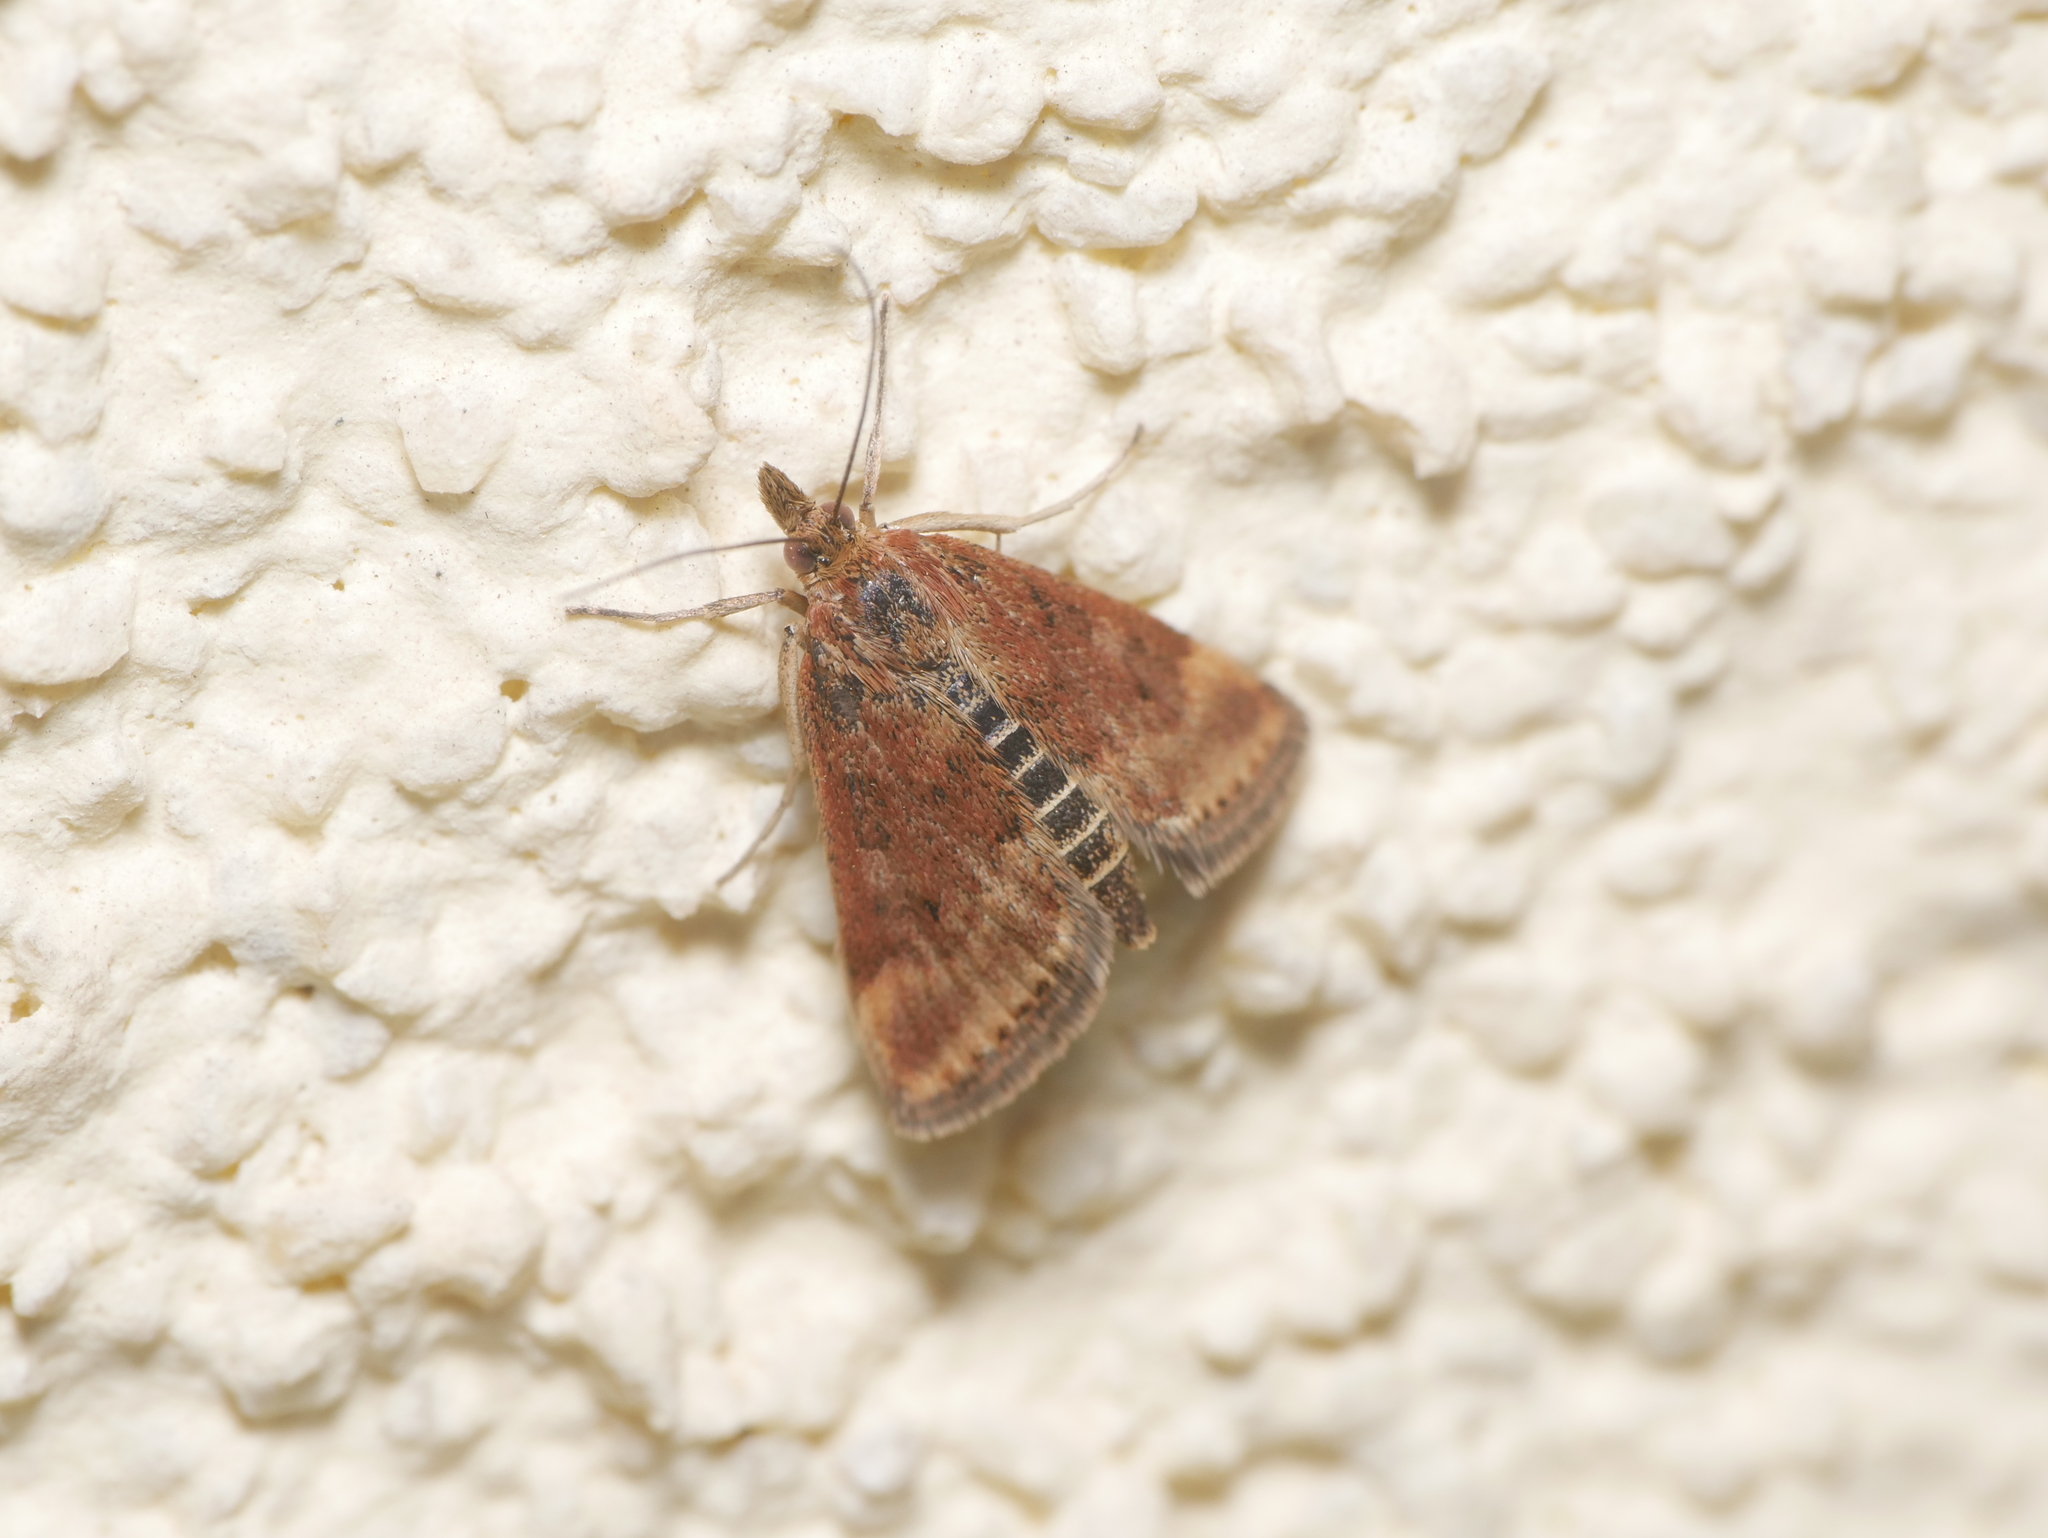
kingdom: Animalia
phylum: Arthropoda
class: Insecta
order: Lepidoptera
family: Crambidae
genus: Pyrausta
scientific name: Pyrausta despicata
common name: Straw-barred pearl
